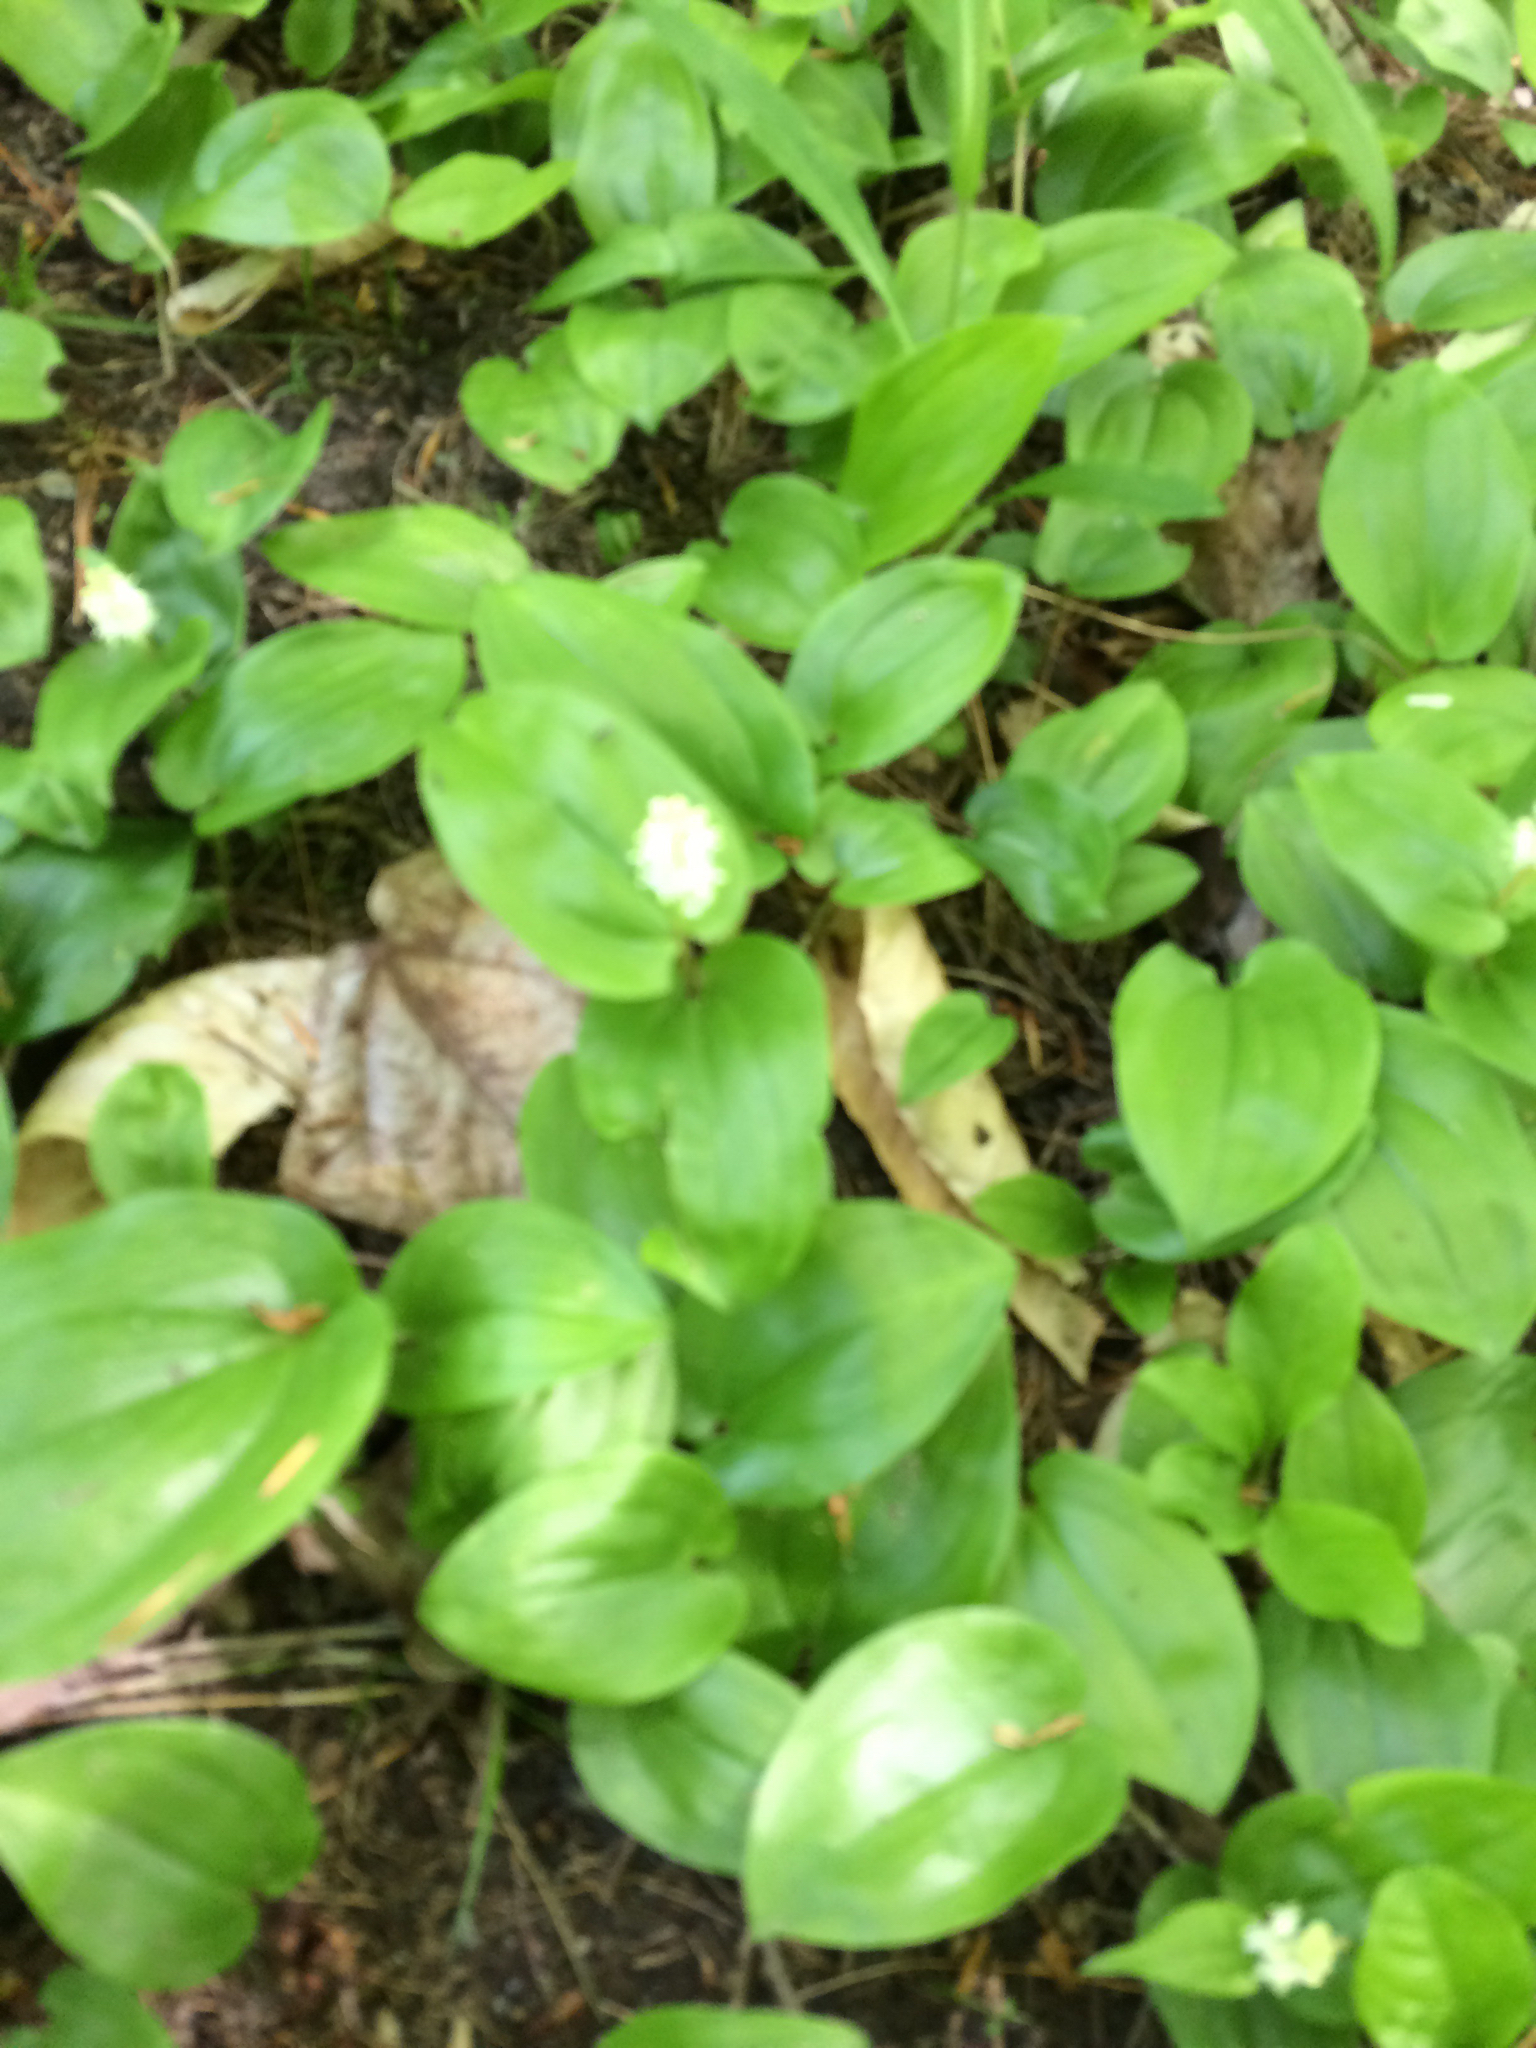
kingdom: Plantae
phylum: Tracheophyta
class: Liliopsida
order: Asparagales
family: Asparagaceae
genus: Maianthemum
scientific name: Maianthemum canadense
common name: False lily-of-the-valley
